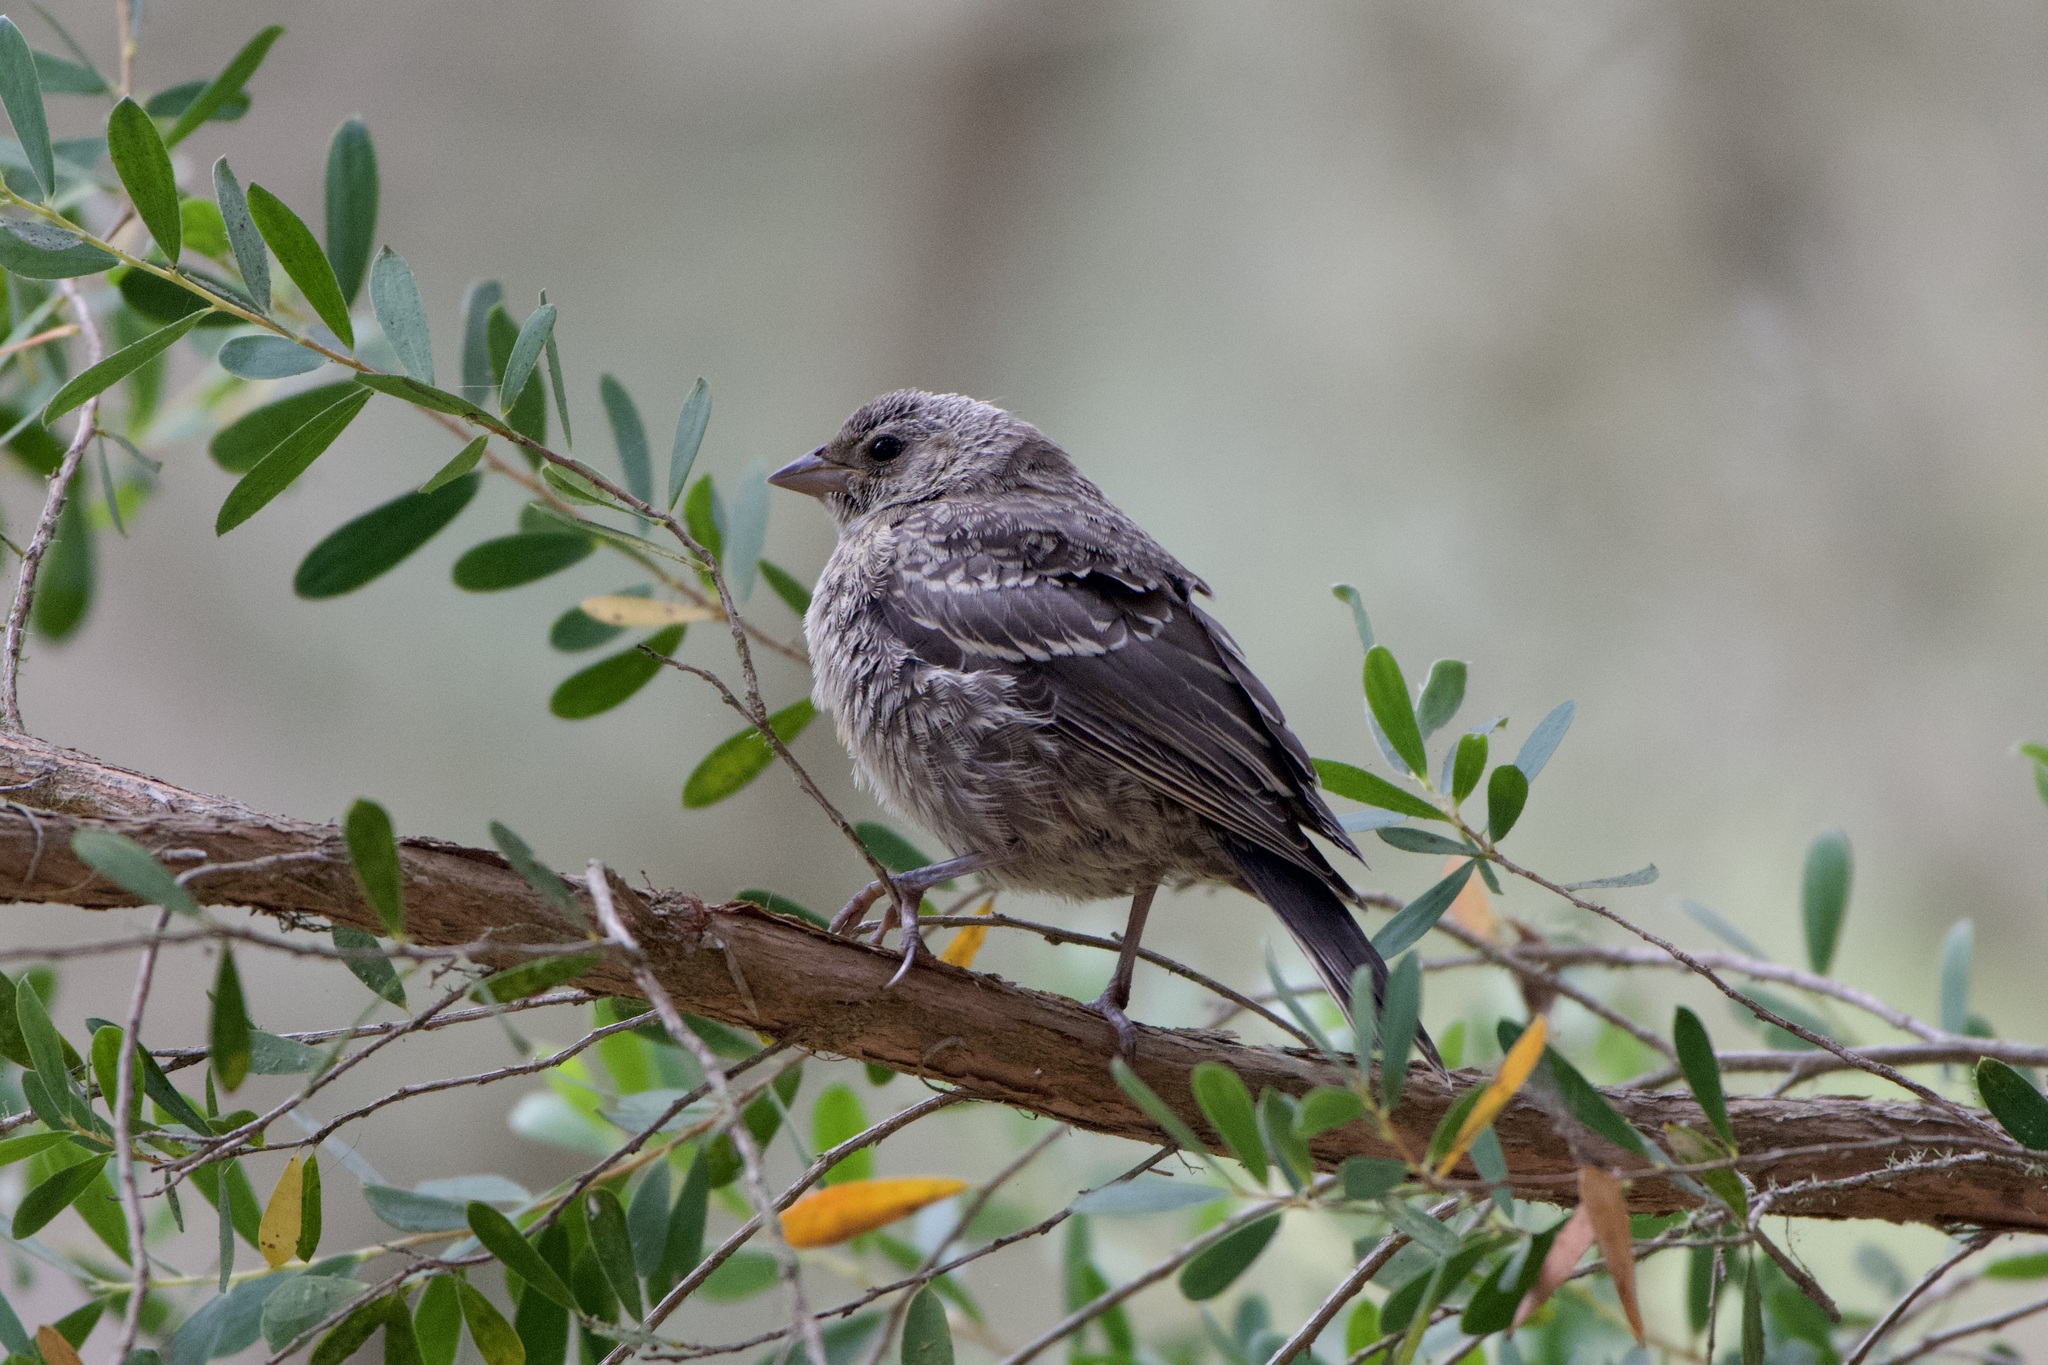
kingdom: Animalia
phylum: Chordata
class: Aves
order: Passeriformes
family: Icteridae
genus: Molothrus
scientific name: Molothrus ater
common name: Brown-headed cowbird
